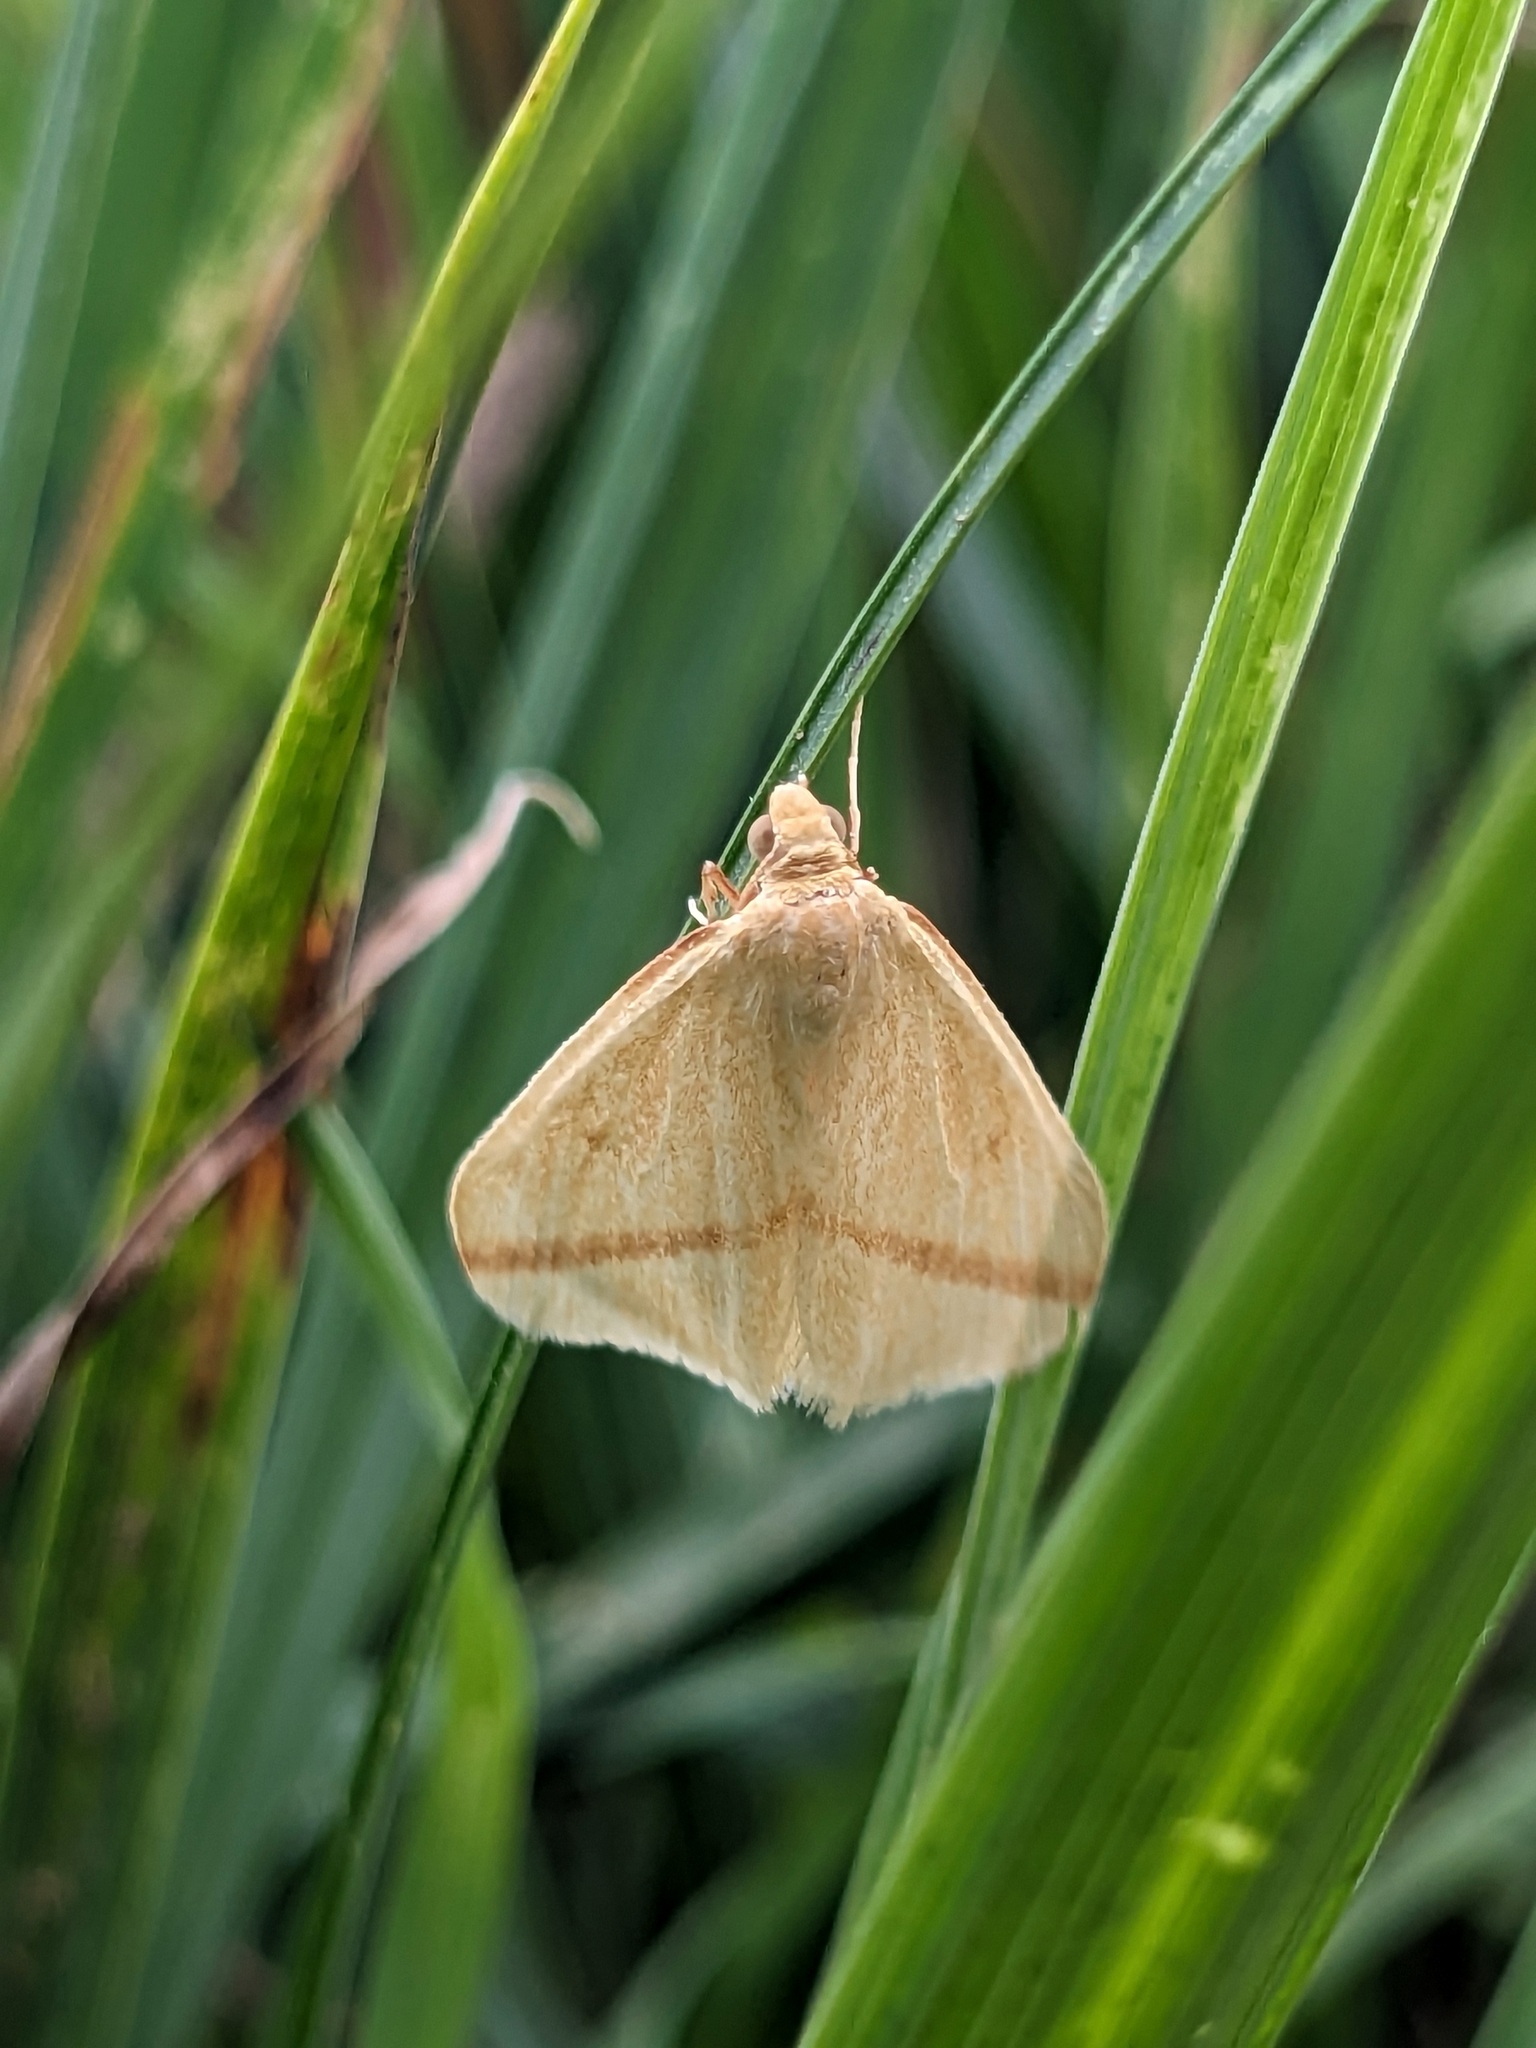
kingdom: Animalia
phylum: Arthropoda
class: Insecta
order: Lepidoptera
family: Geometridae
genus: Rhodometra
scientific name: Rhodometra sacraria
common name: Vestal
